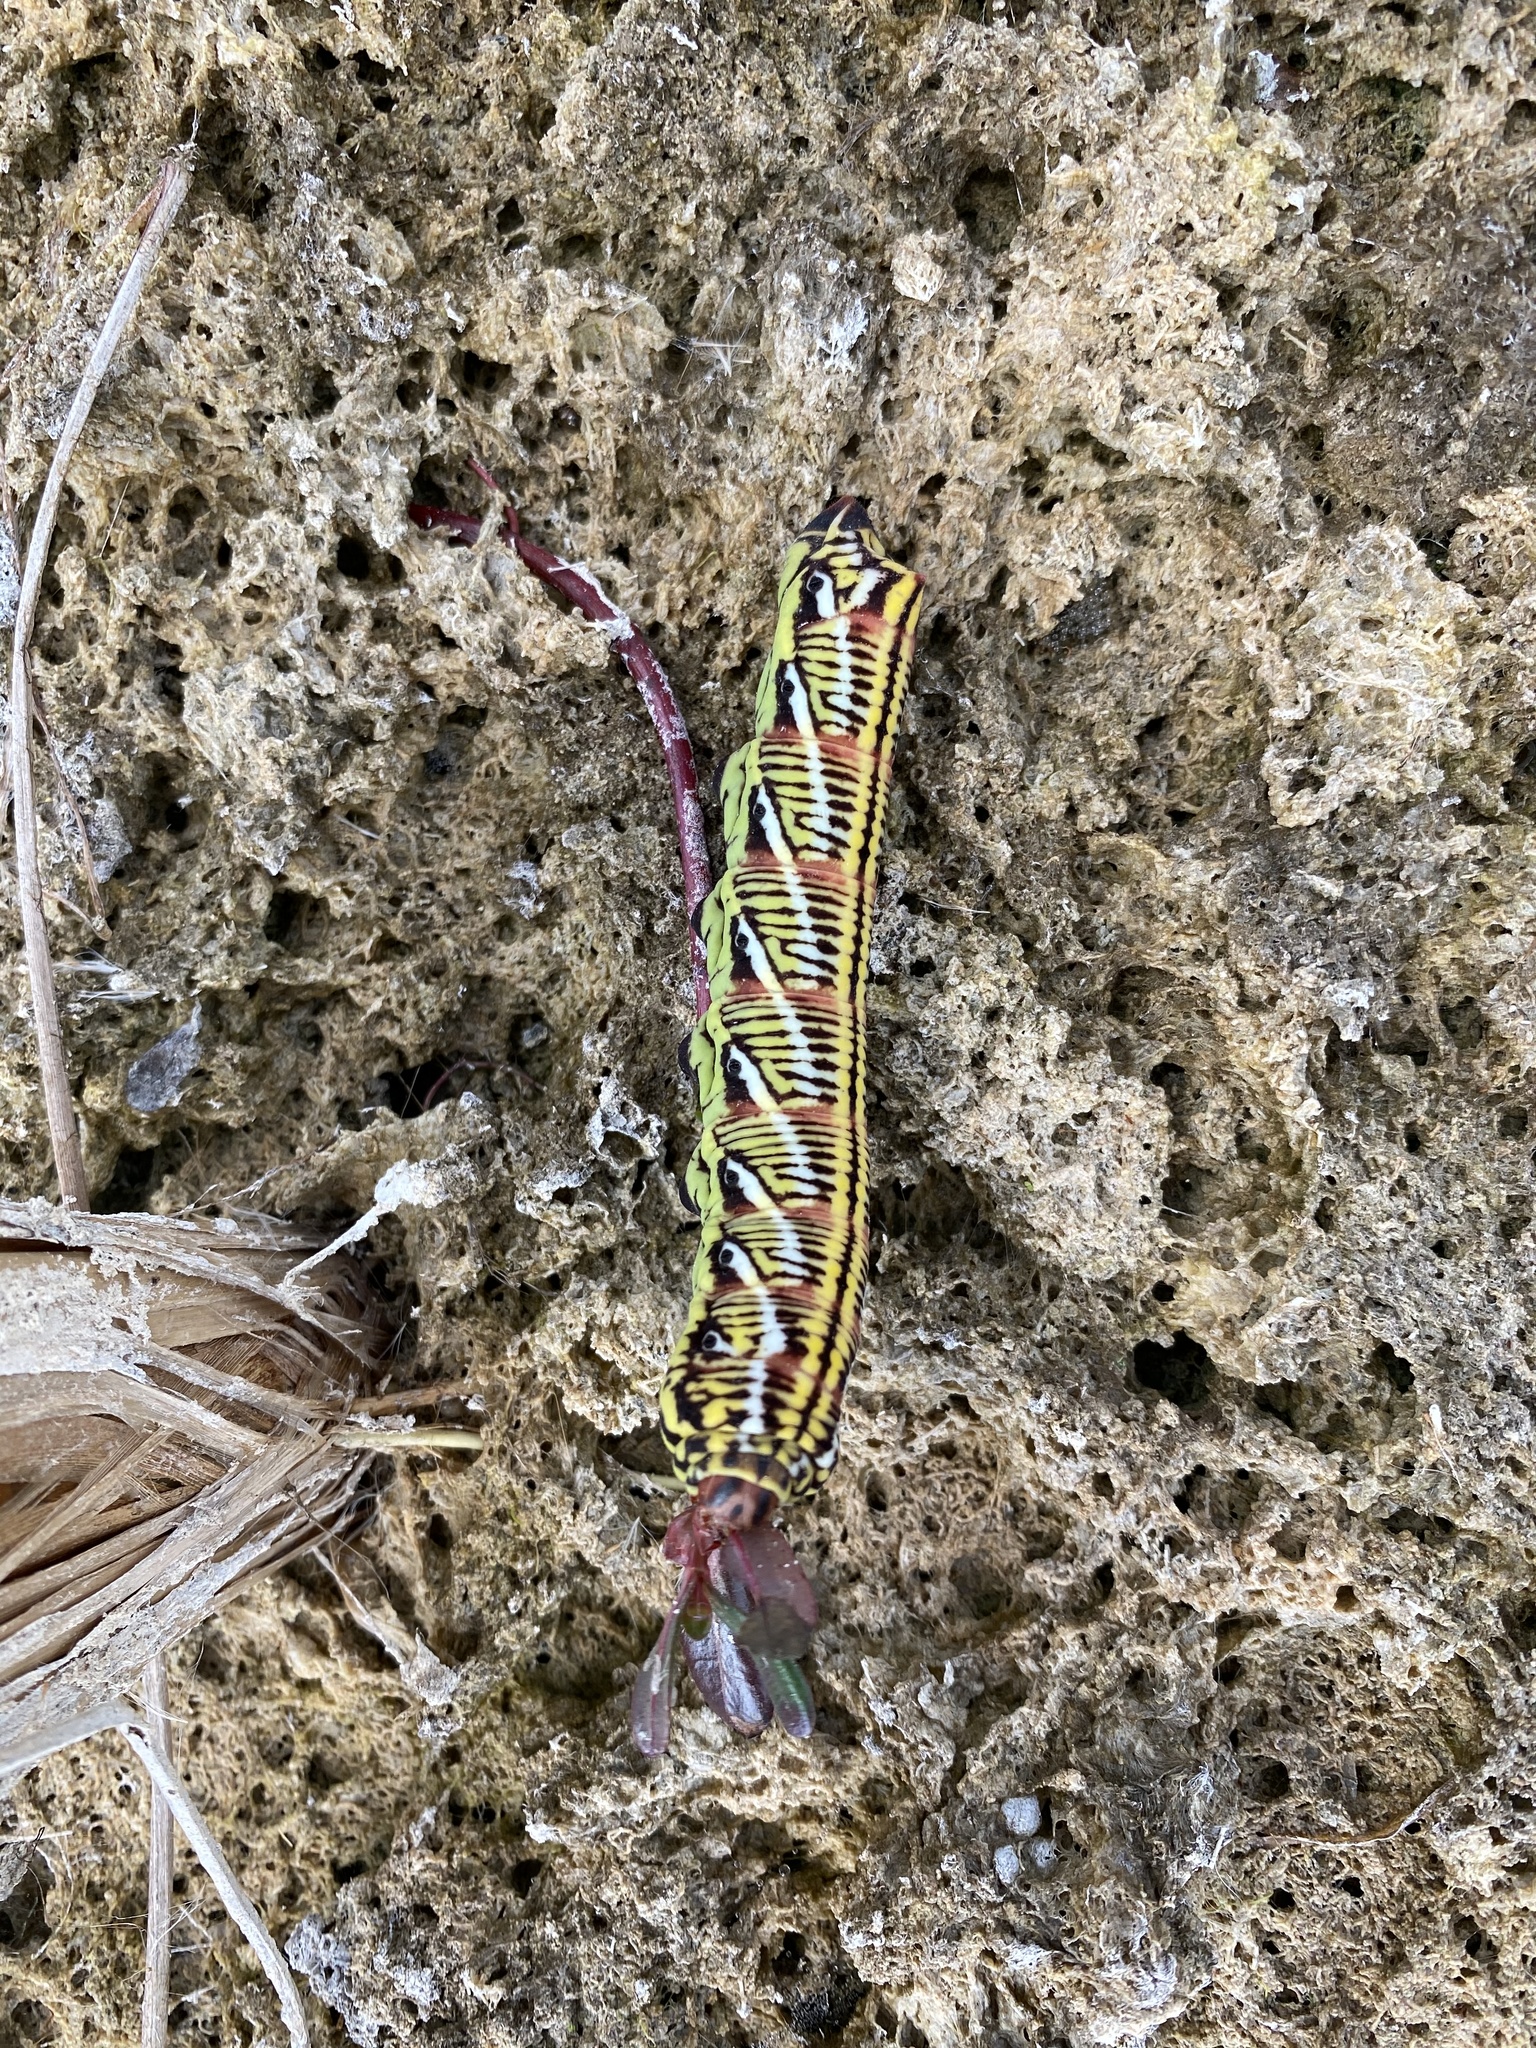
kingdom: Animalia
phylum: Arthropoda
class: Insecta
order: Lepidoptera
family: Sphingidae
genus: Eumorpha
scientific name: Eumorpha fasciatus
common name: Banded sphinx
